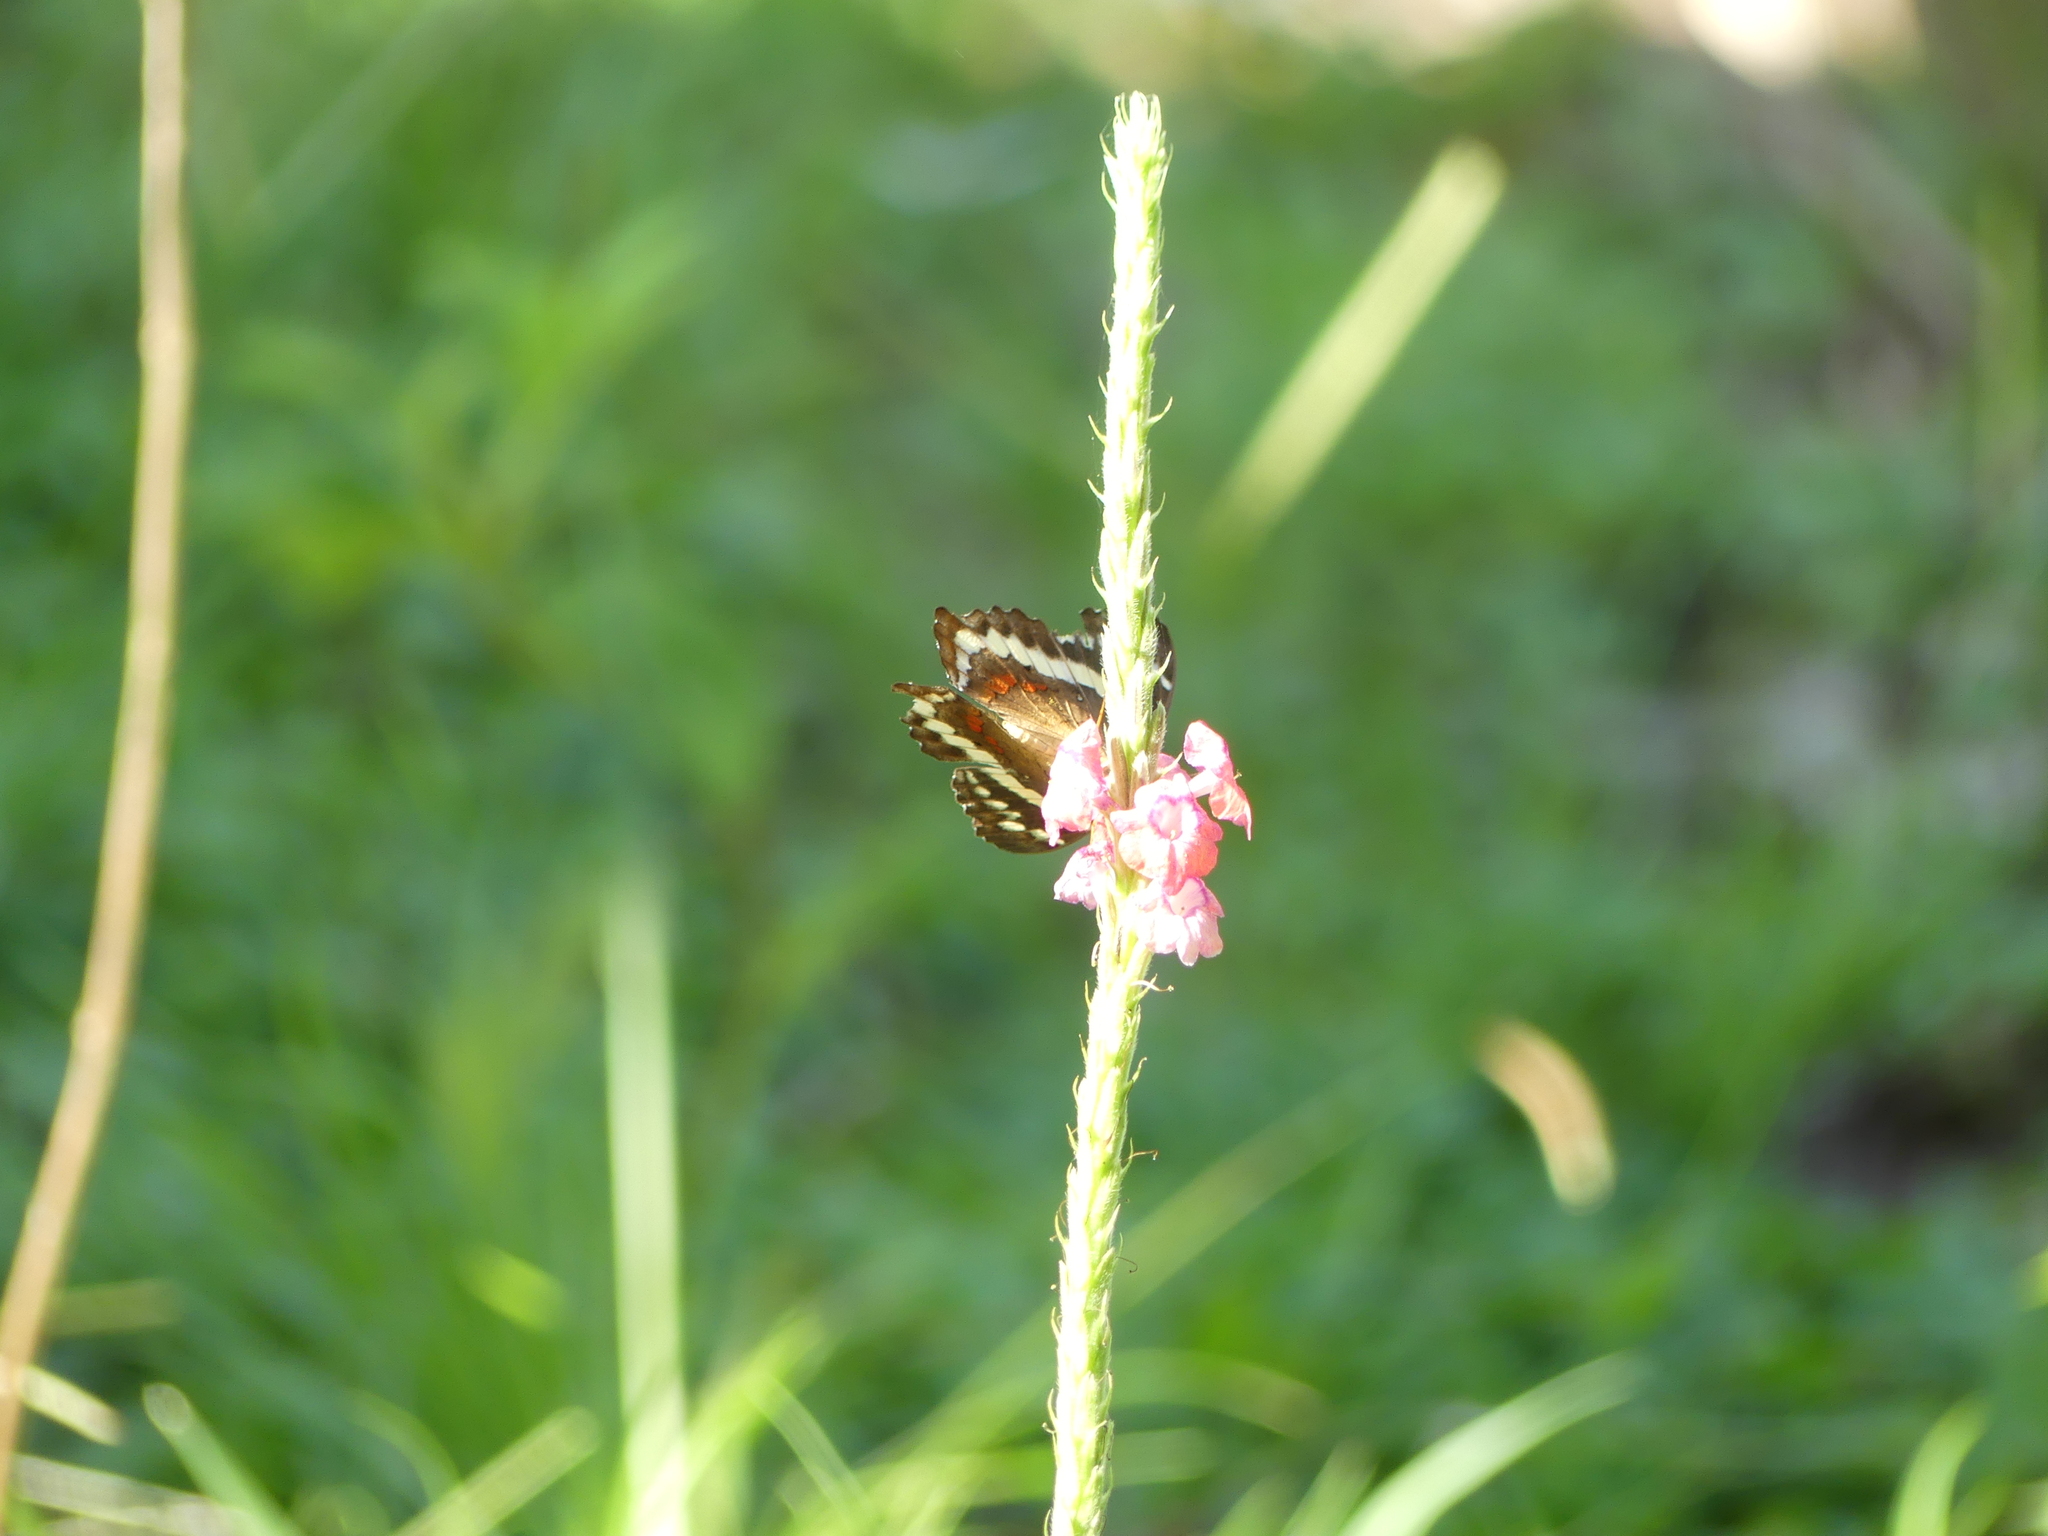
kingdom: Animalia
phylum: Arthropoda
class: Insecta
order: Lepidoptera
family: Nymphalidae
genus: Anartia
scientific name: Anartia fatima
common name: Banded peacock
